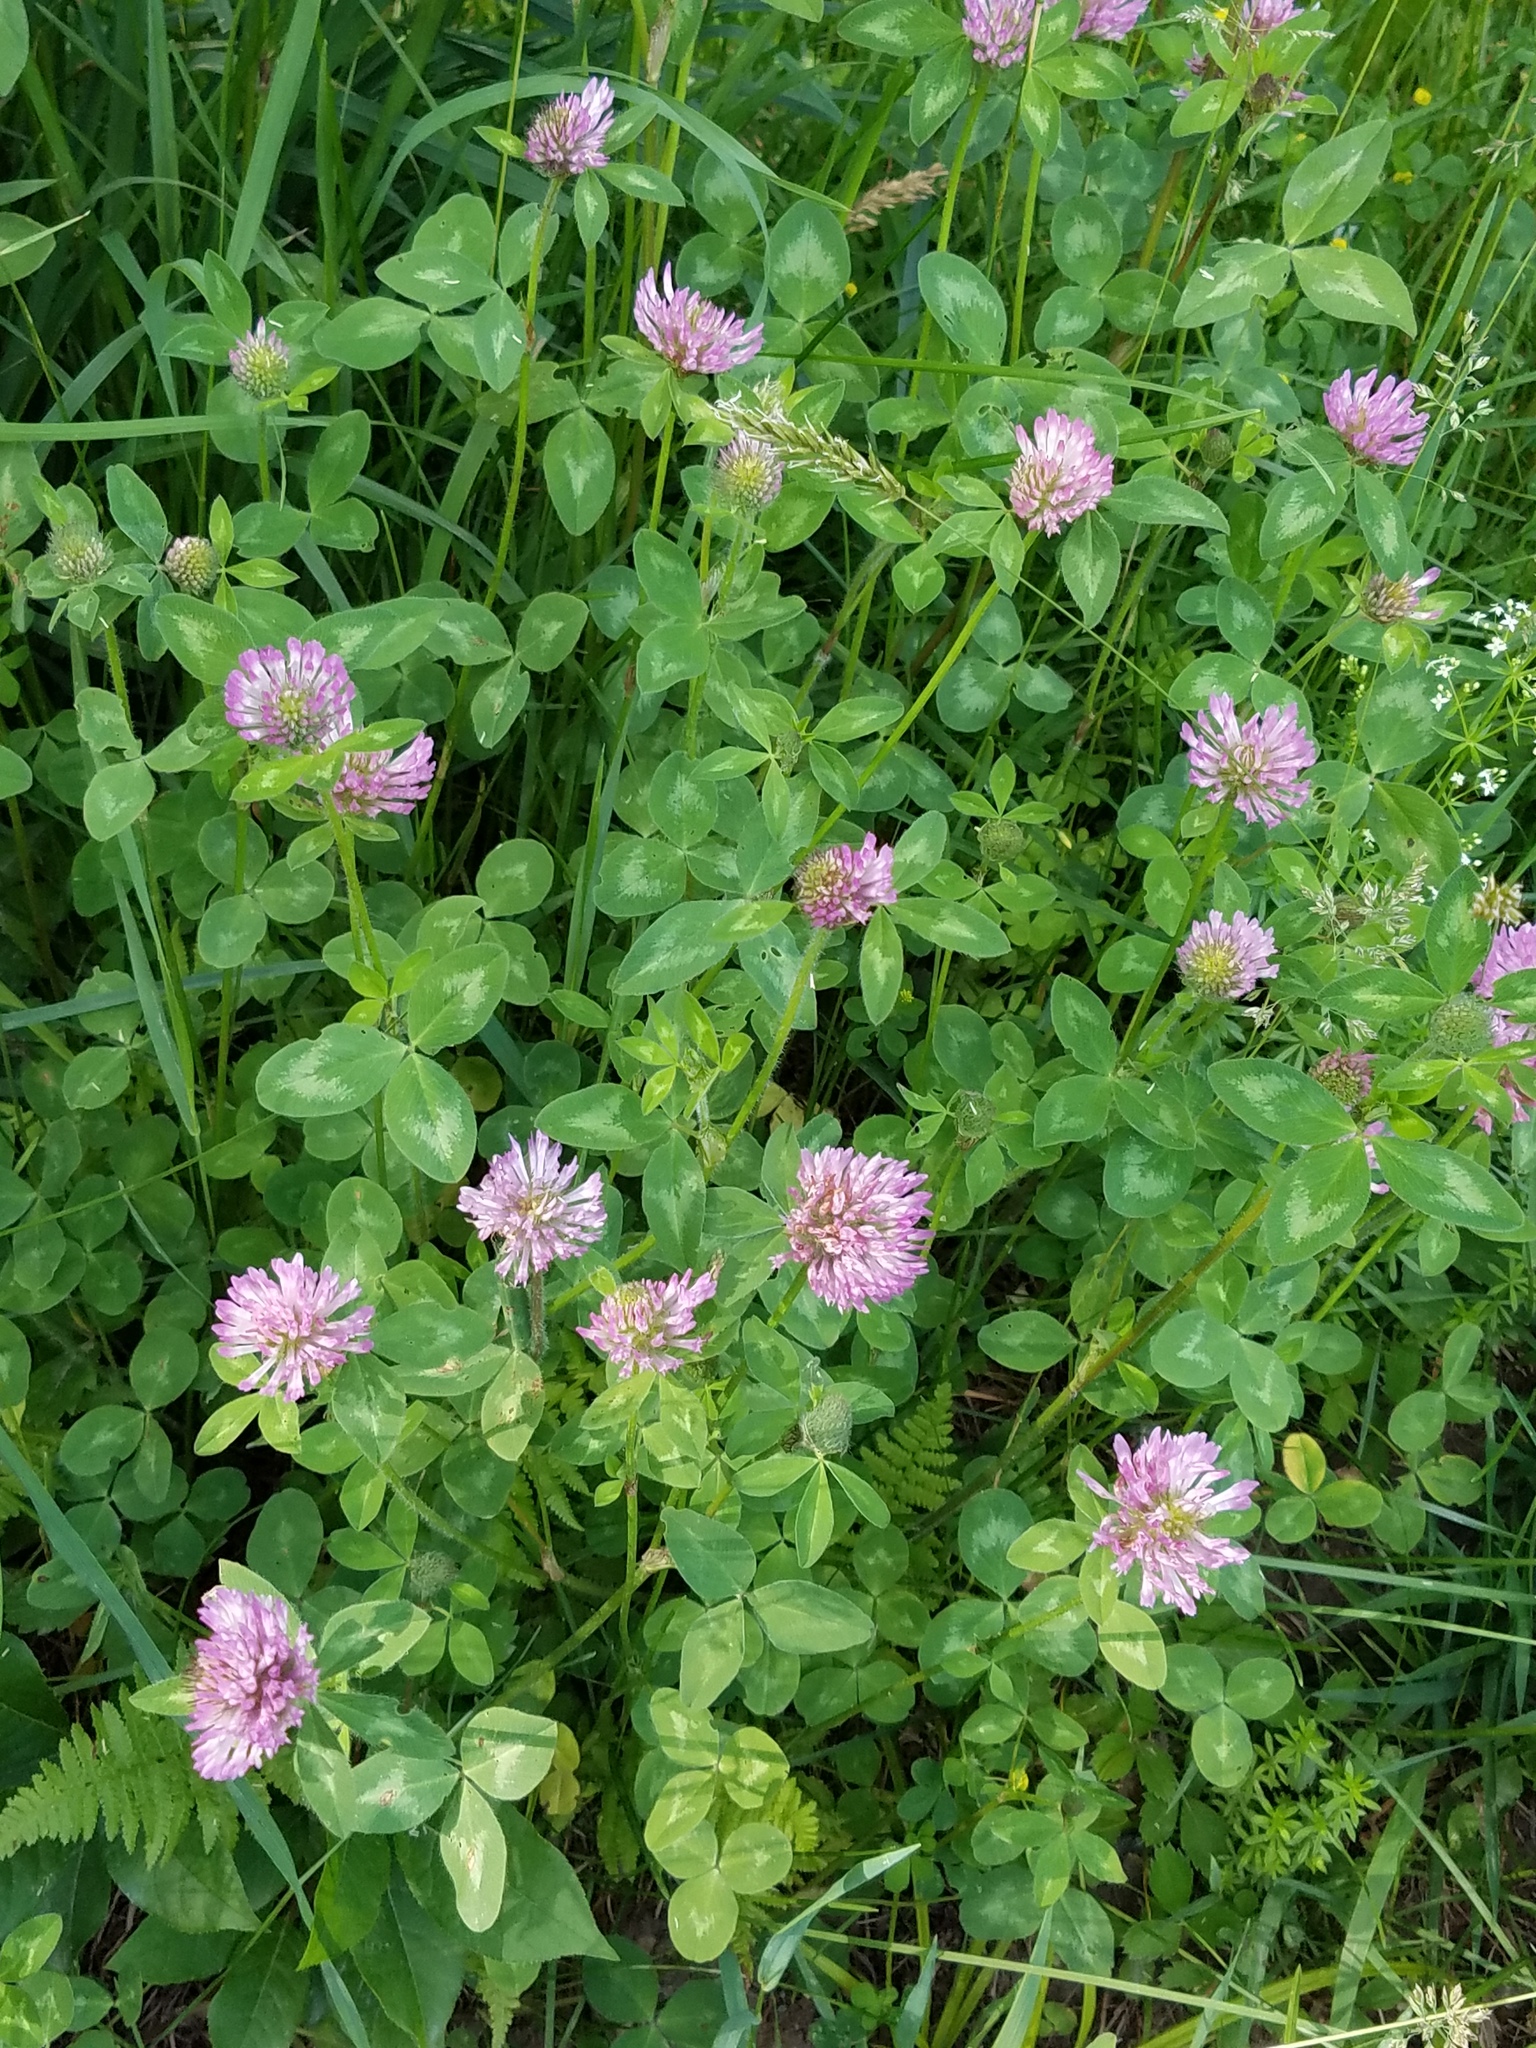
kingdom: Plantae
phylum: Tracheophyta
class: Magnoliopsida
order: Fabales
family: Fabaceae
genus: Trifolium
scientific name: Trifolium pratense
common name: Red clover
